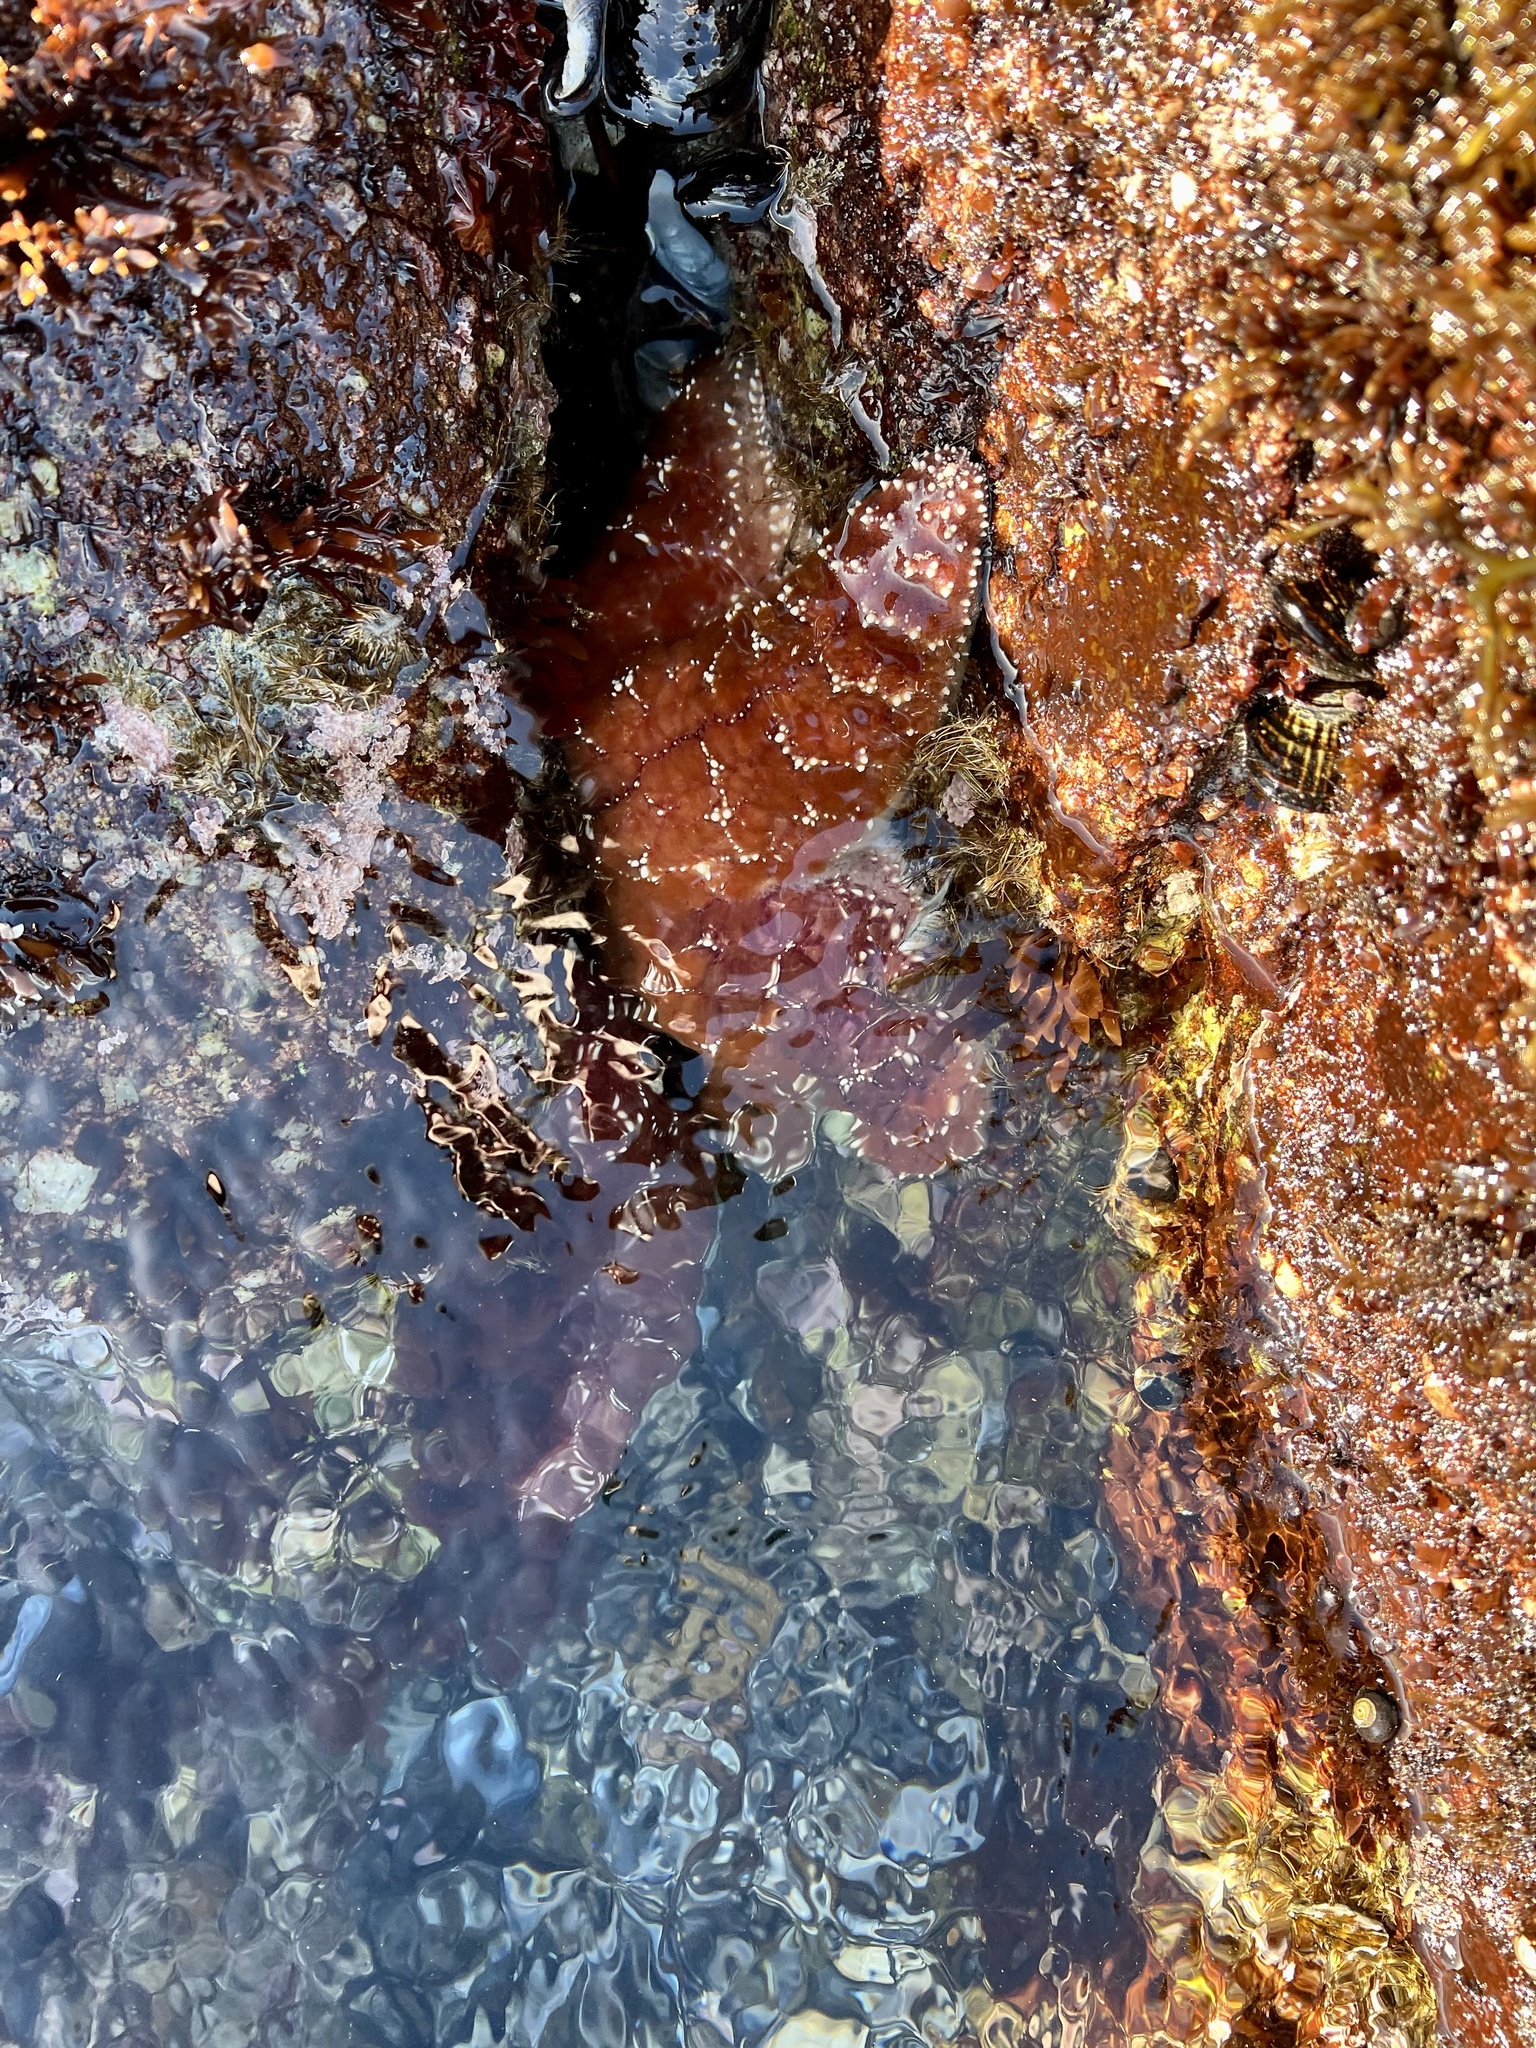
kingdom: Animalia
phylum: Echinodermata
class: Asteroidea
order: Forcipulatida
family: Asteriidae
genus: Pisaster
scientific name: Pisaster ochraceus
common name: Ochre stars
